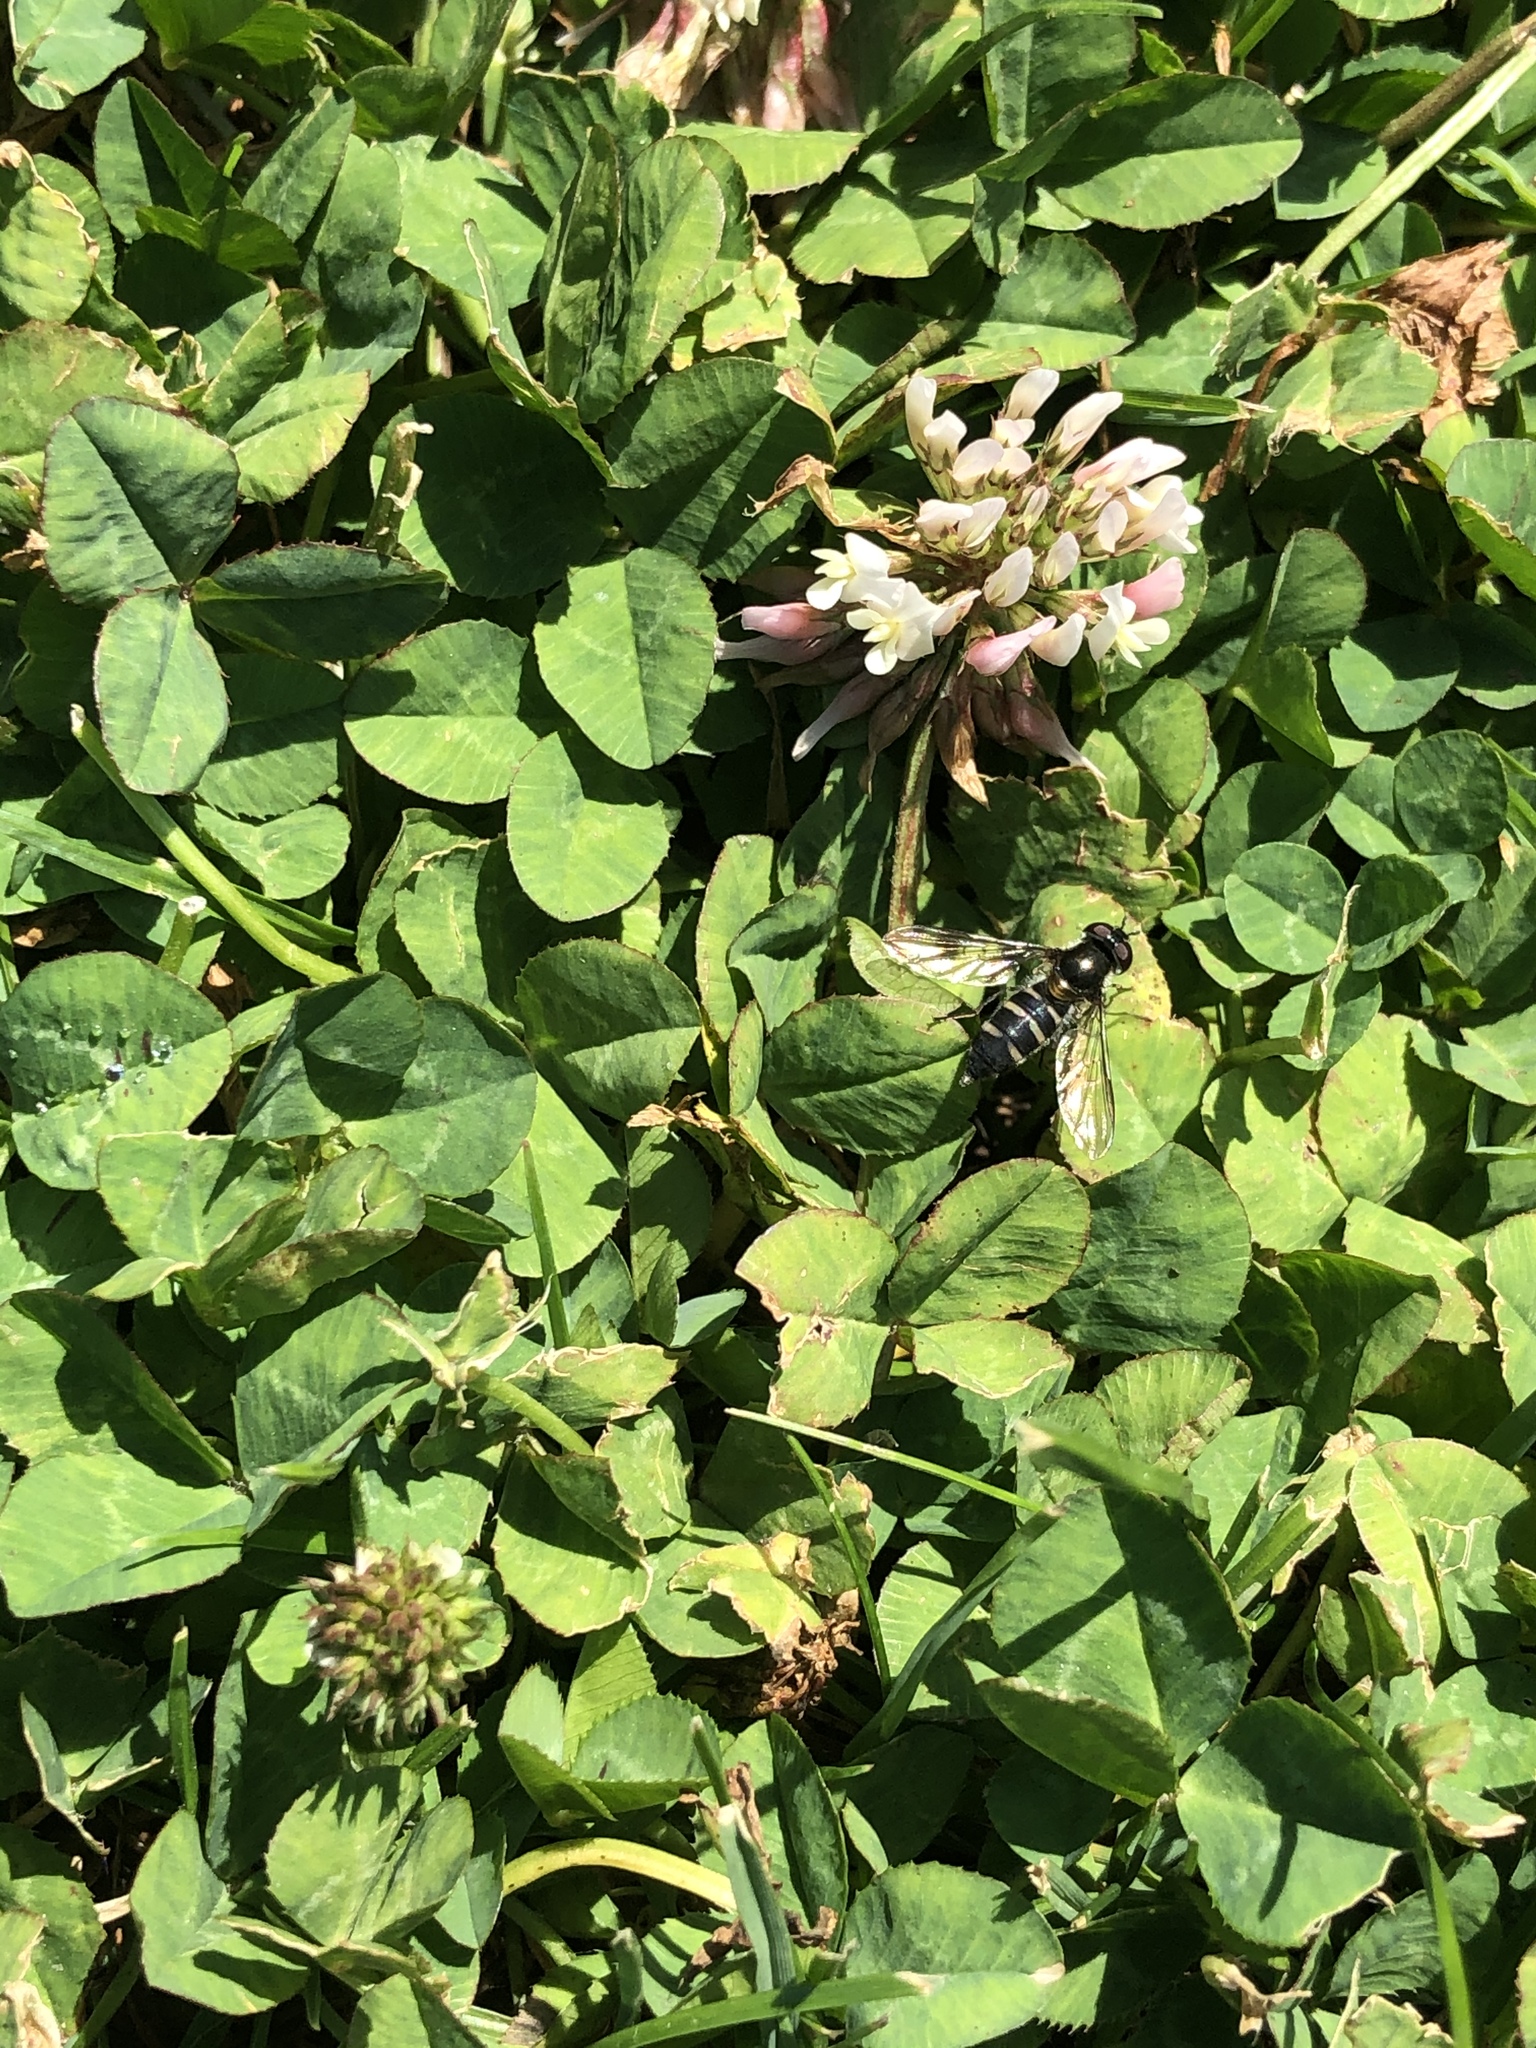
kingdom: Animalia
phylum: Arthropoda
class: Insecta
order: Diptera
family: Syrphidae
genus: Melangyna
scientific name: Melangyna novaezelandiae
